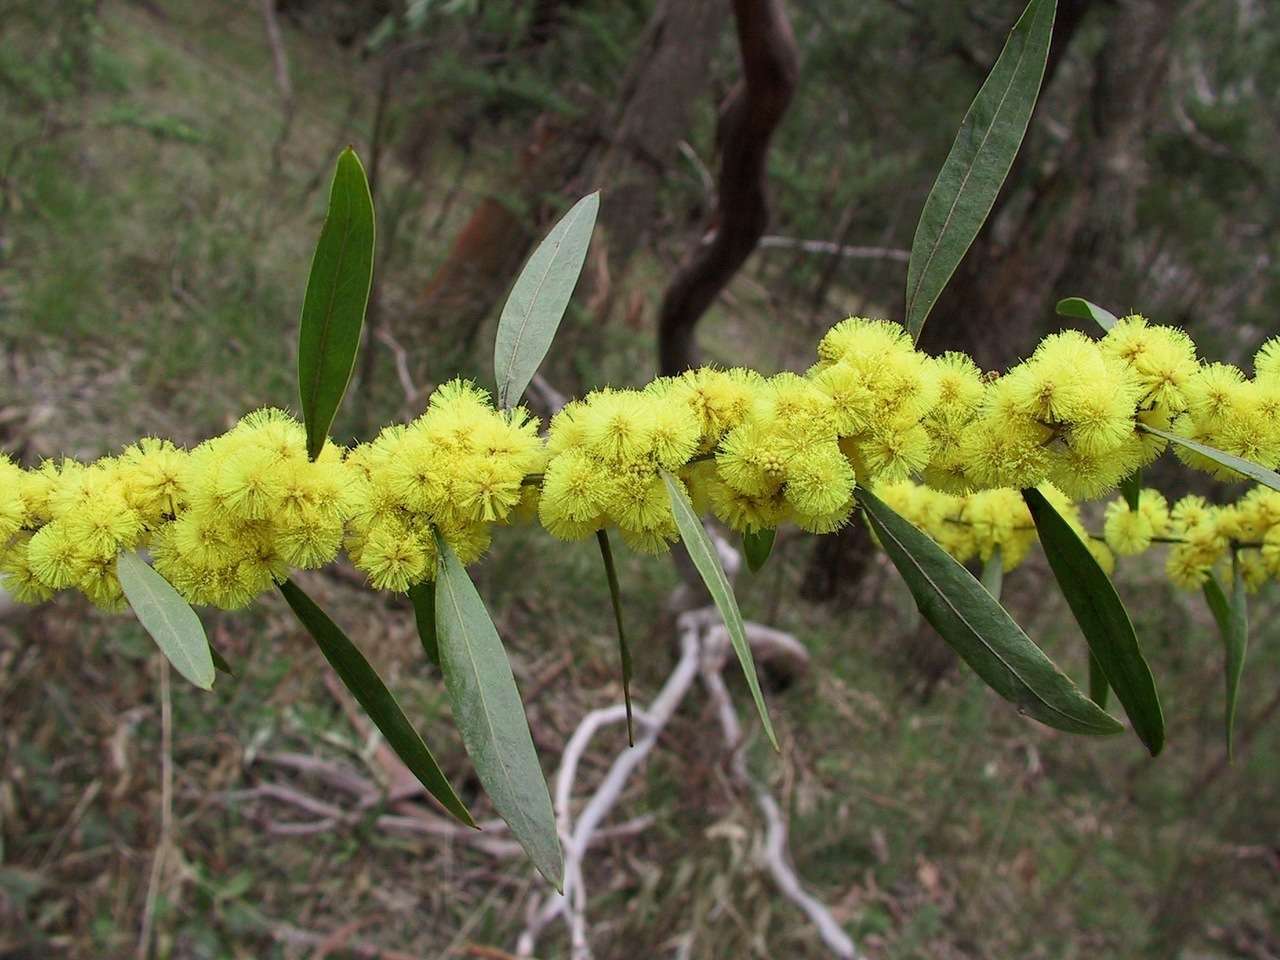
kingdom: Plantae
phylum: Tracheophyta
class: Magnoliopsida
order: Fabales
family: Fabaceae
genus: Acacia
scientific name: Acacia leprosa
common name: Cinnamon wattle
